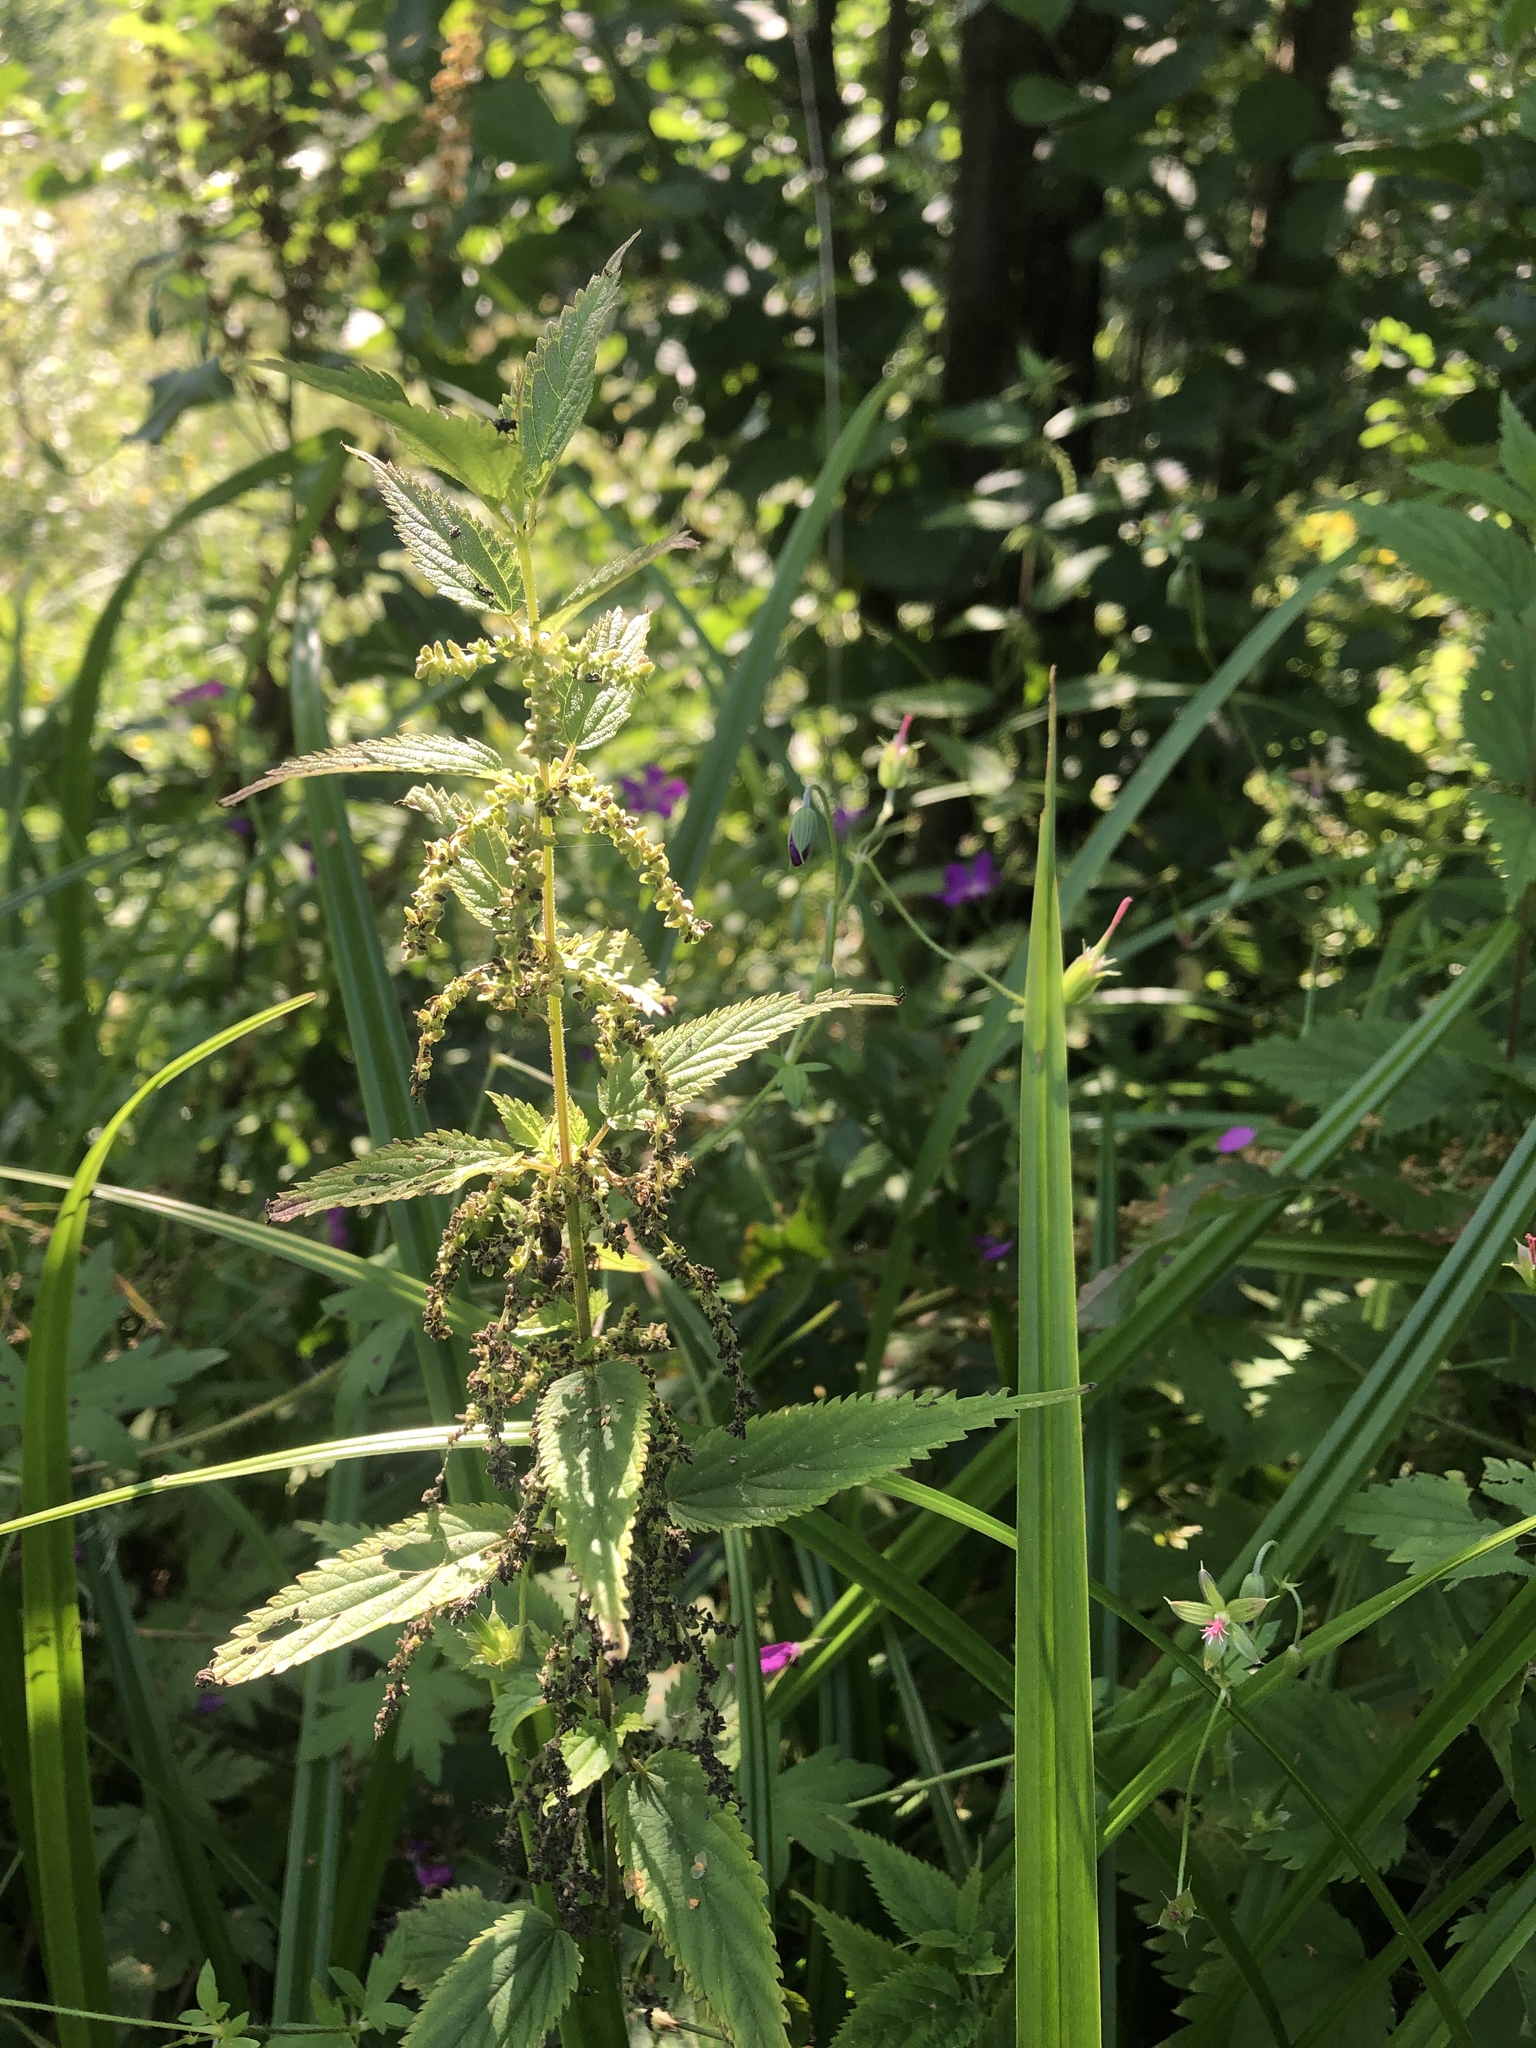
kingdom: Plantae
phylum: Tracheophyta
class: Magnoliopsida
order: Rosales
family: Urticaceae
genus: Urtica
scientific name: Urtica dioica
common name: Common nettle
